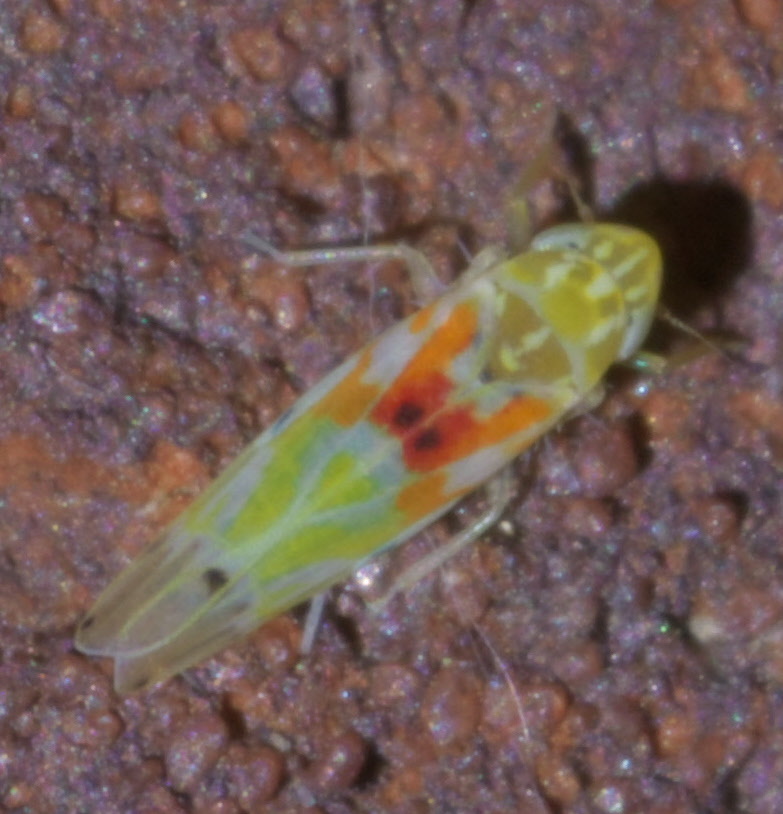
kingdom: Animalia
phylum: Arthropoda
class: Insecta
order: Hemiptera
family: Cicadellidae
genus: Erythroneura
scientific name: Erythroneura octonotata
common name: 8-spotted leafhopper
